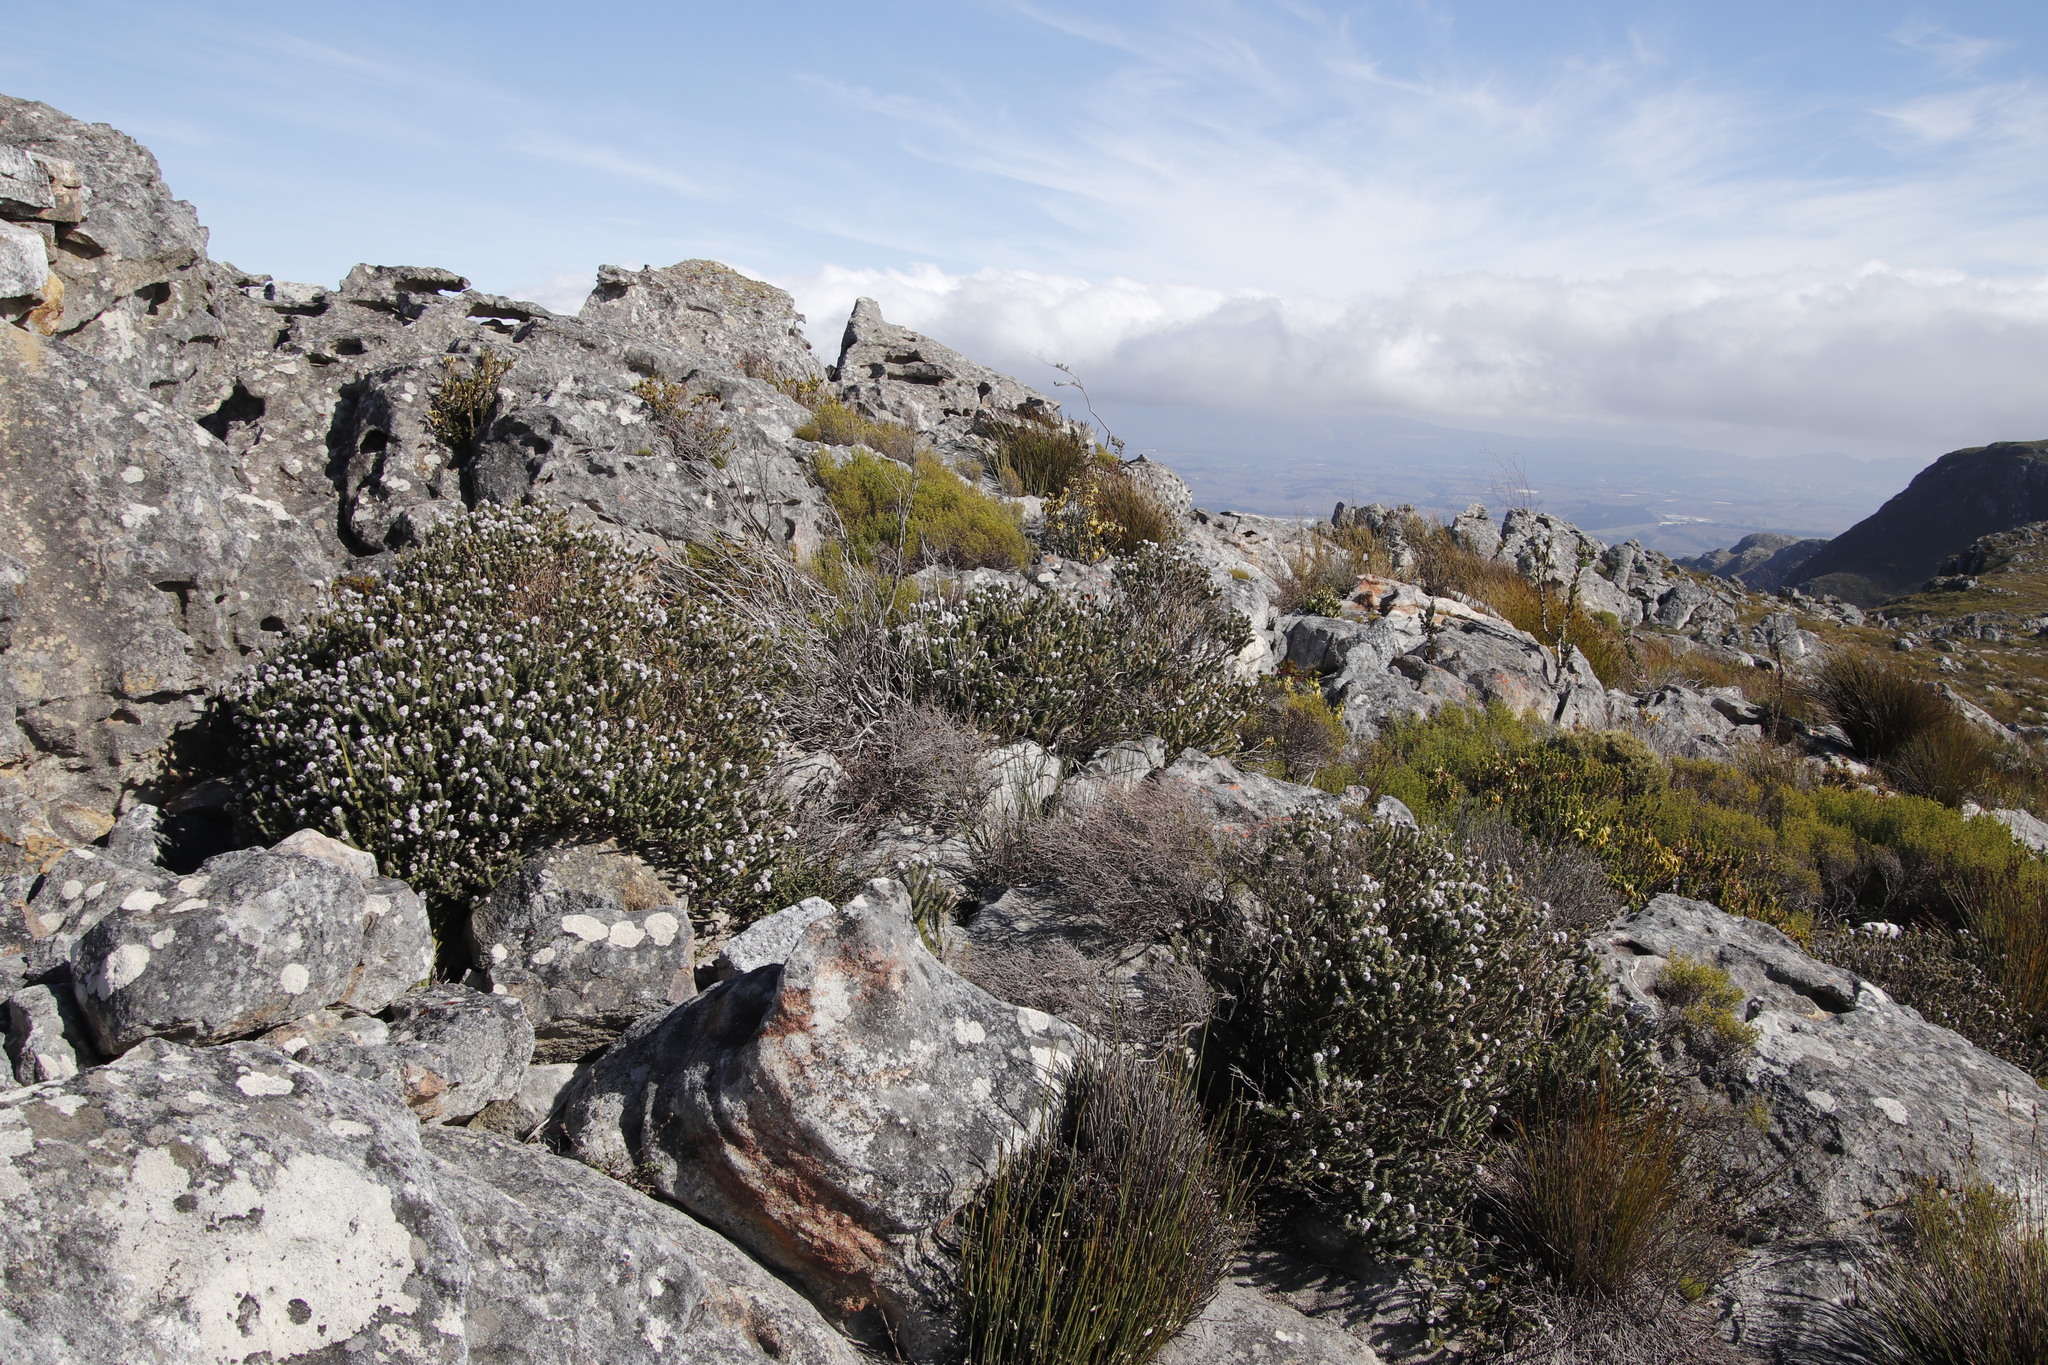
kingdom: Plantae
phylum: Tracheophyta
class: Magnoliopsida
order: Lamiales
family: Stilbaceae
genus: Kogelbergia
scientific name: Kogelbergia verticillata
